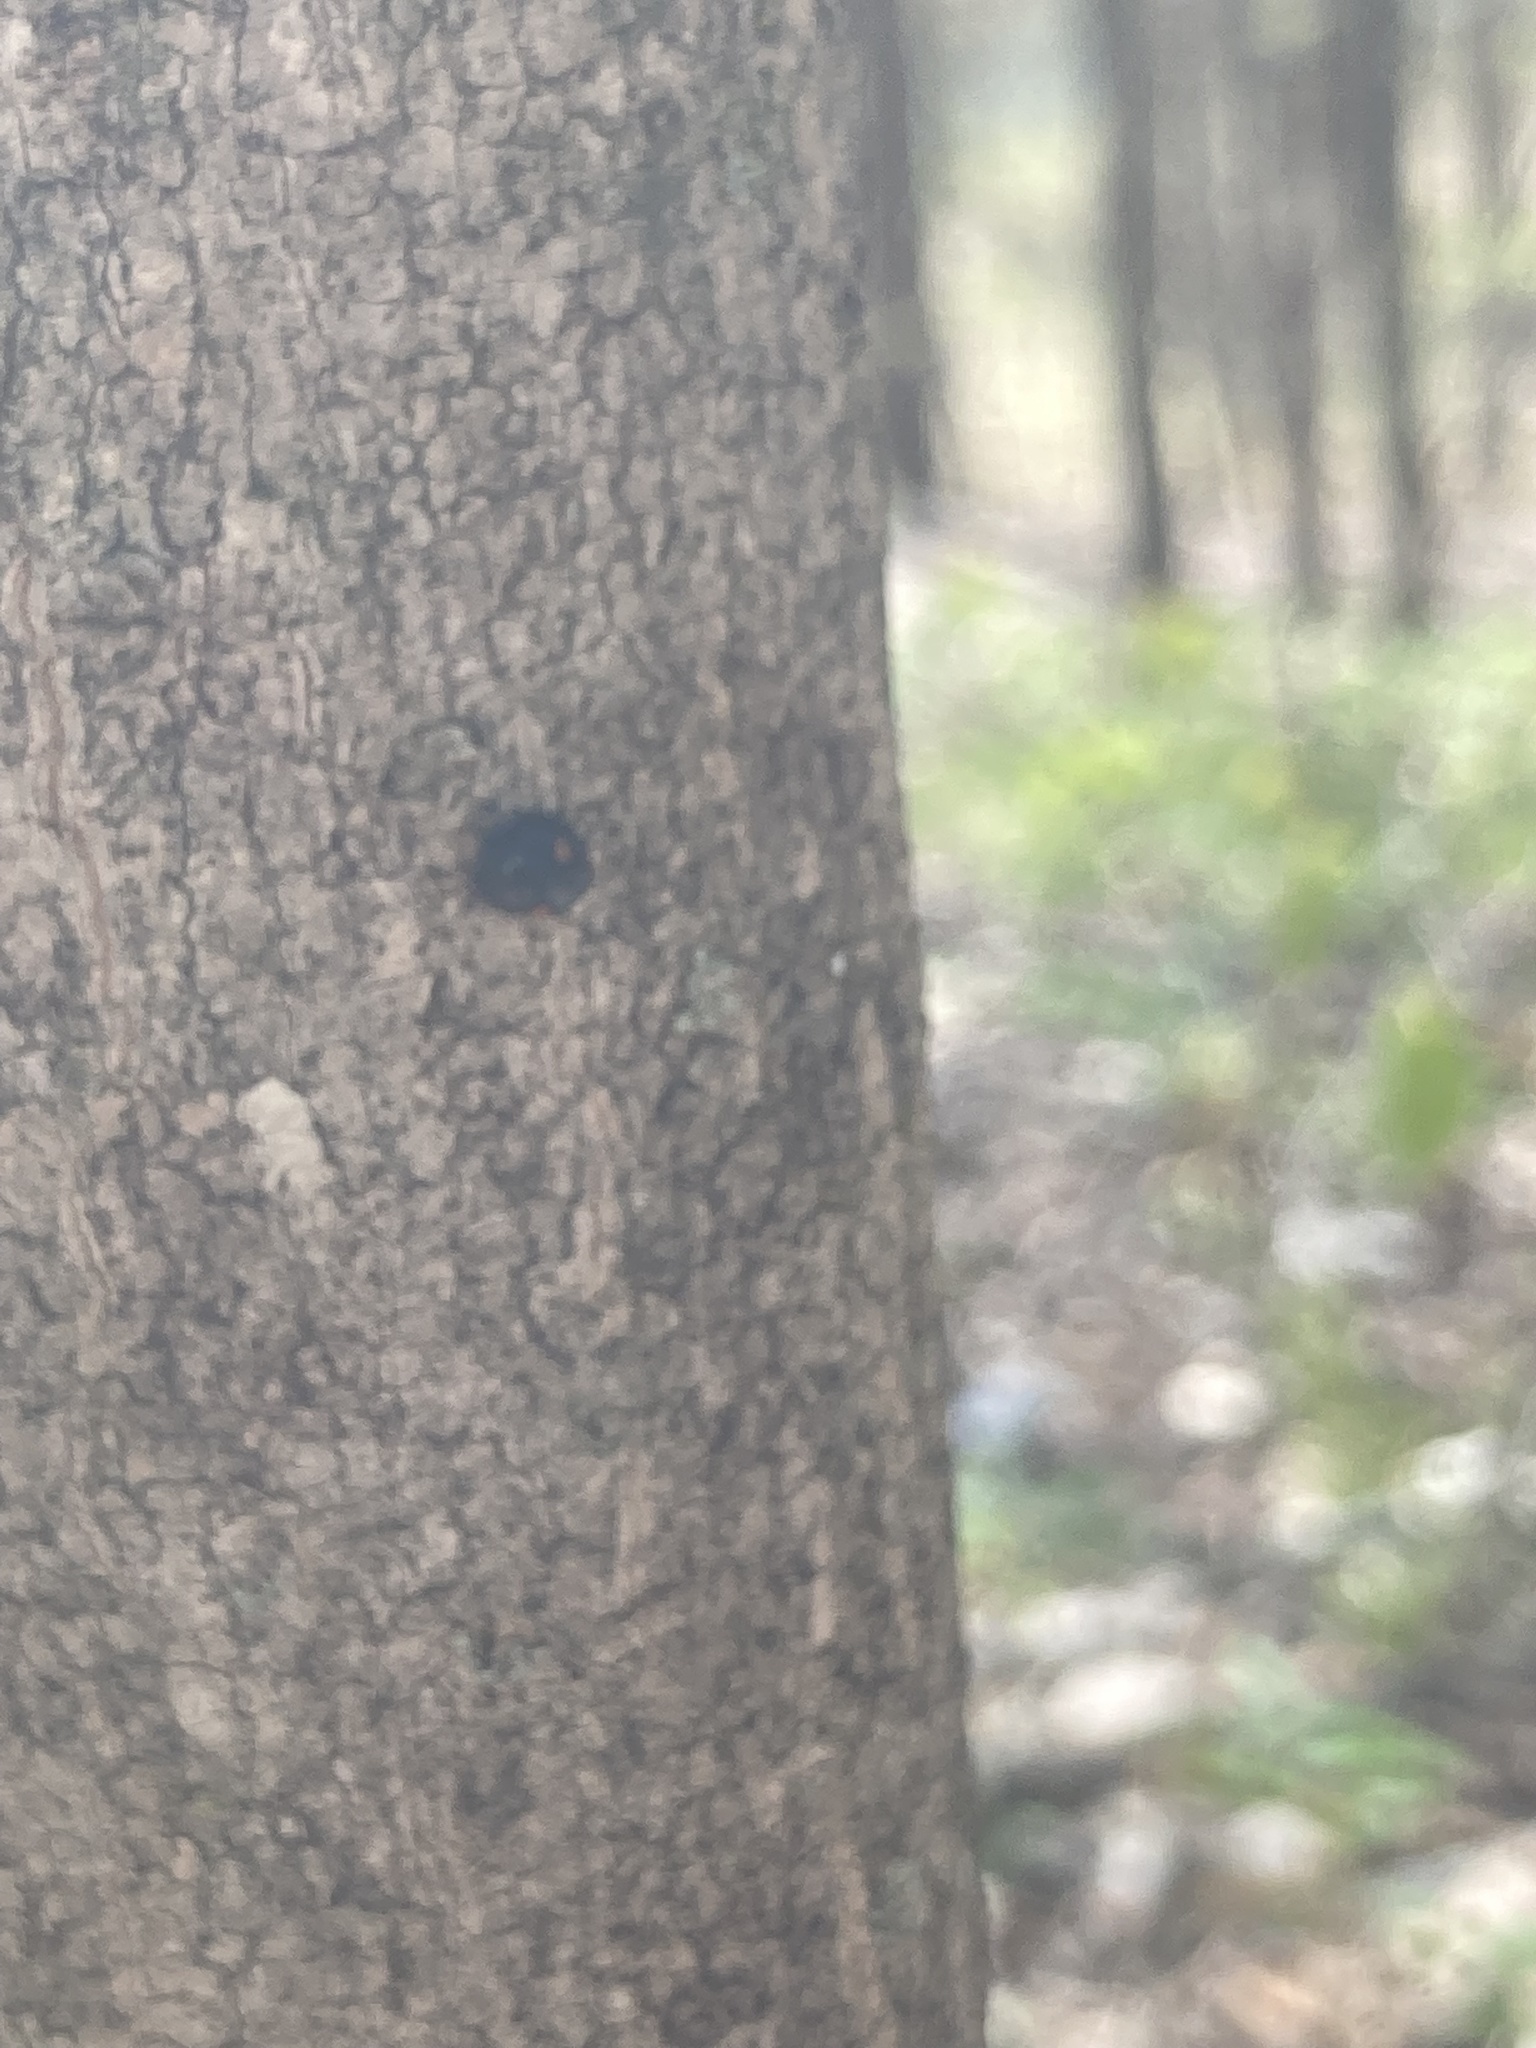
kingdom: Animalia
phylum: Arthropoda
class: Insecta
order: Coleoptera
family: Coccinellidae
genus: Chilocorus
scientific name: Chilocorus stigma
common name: Twicestabbed lady beetle
